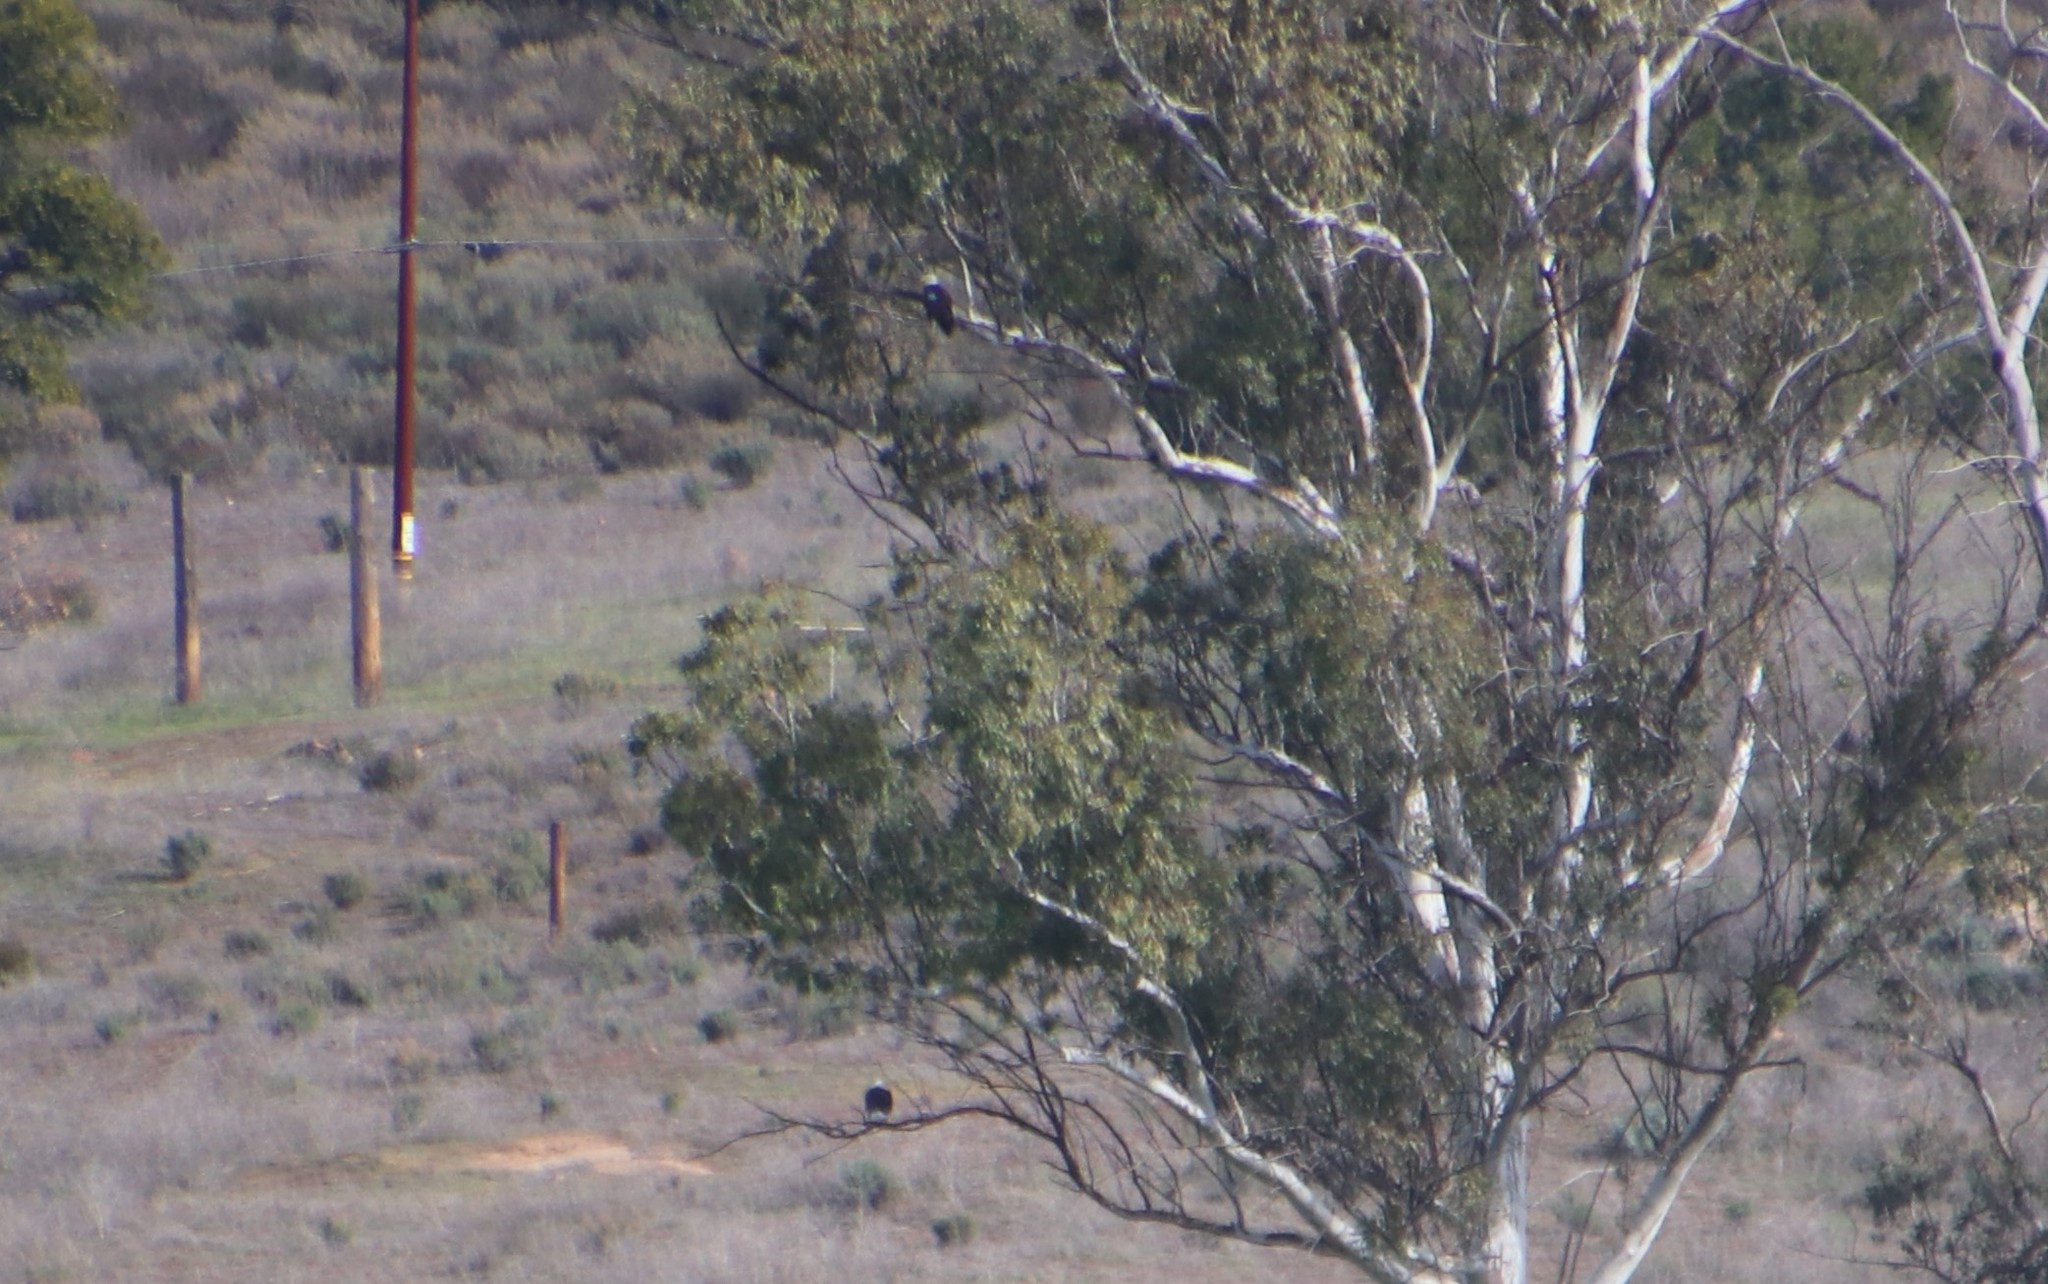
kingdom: Animalia
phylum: Chordata
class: Aves
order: Accipitriformes
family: Accipitridae
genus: Haliaeetus
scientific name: Haliaeetus leucocephalus
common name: Bald eagle
